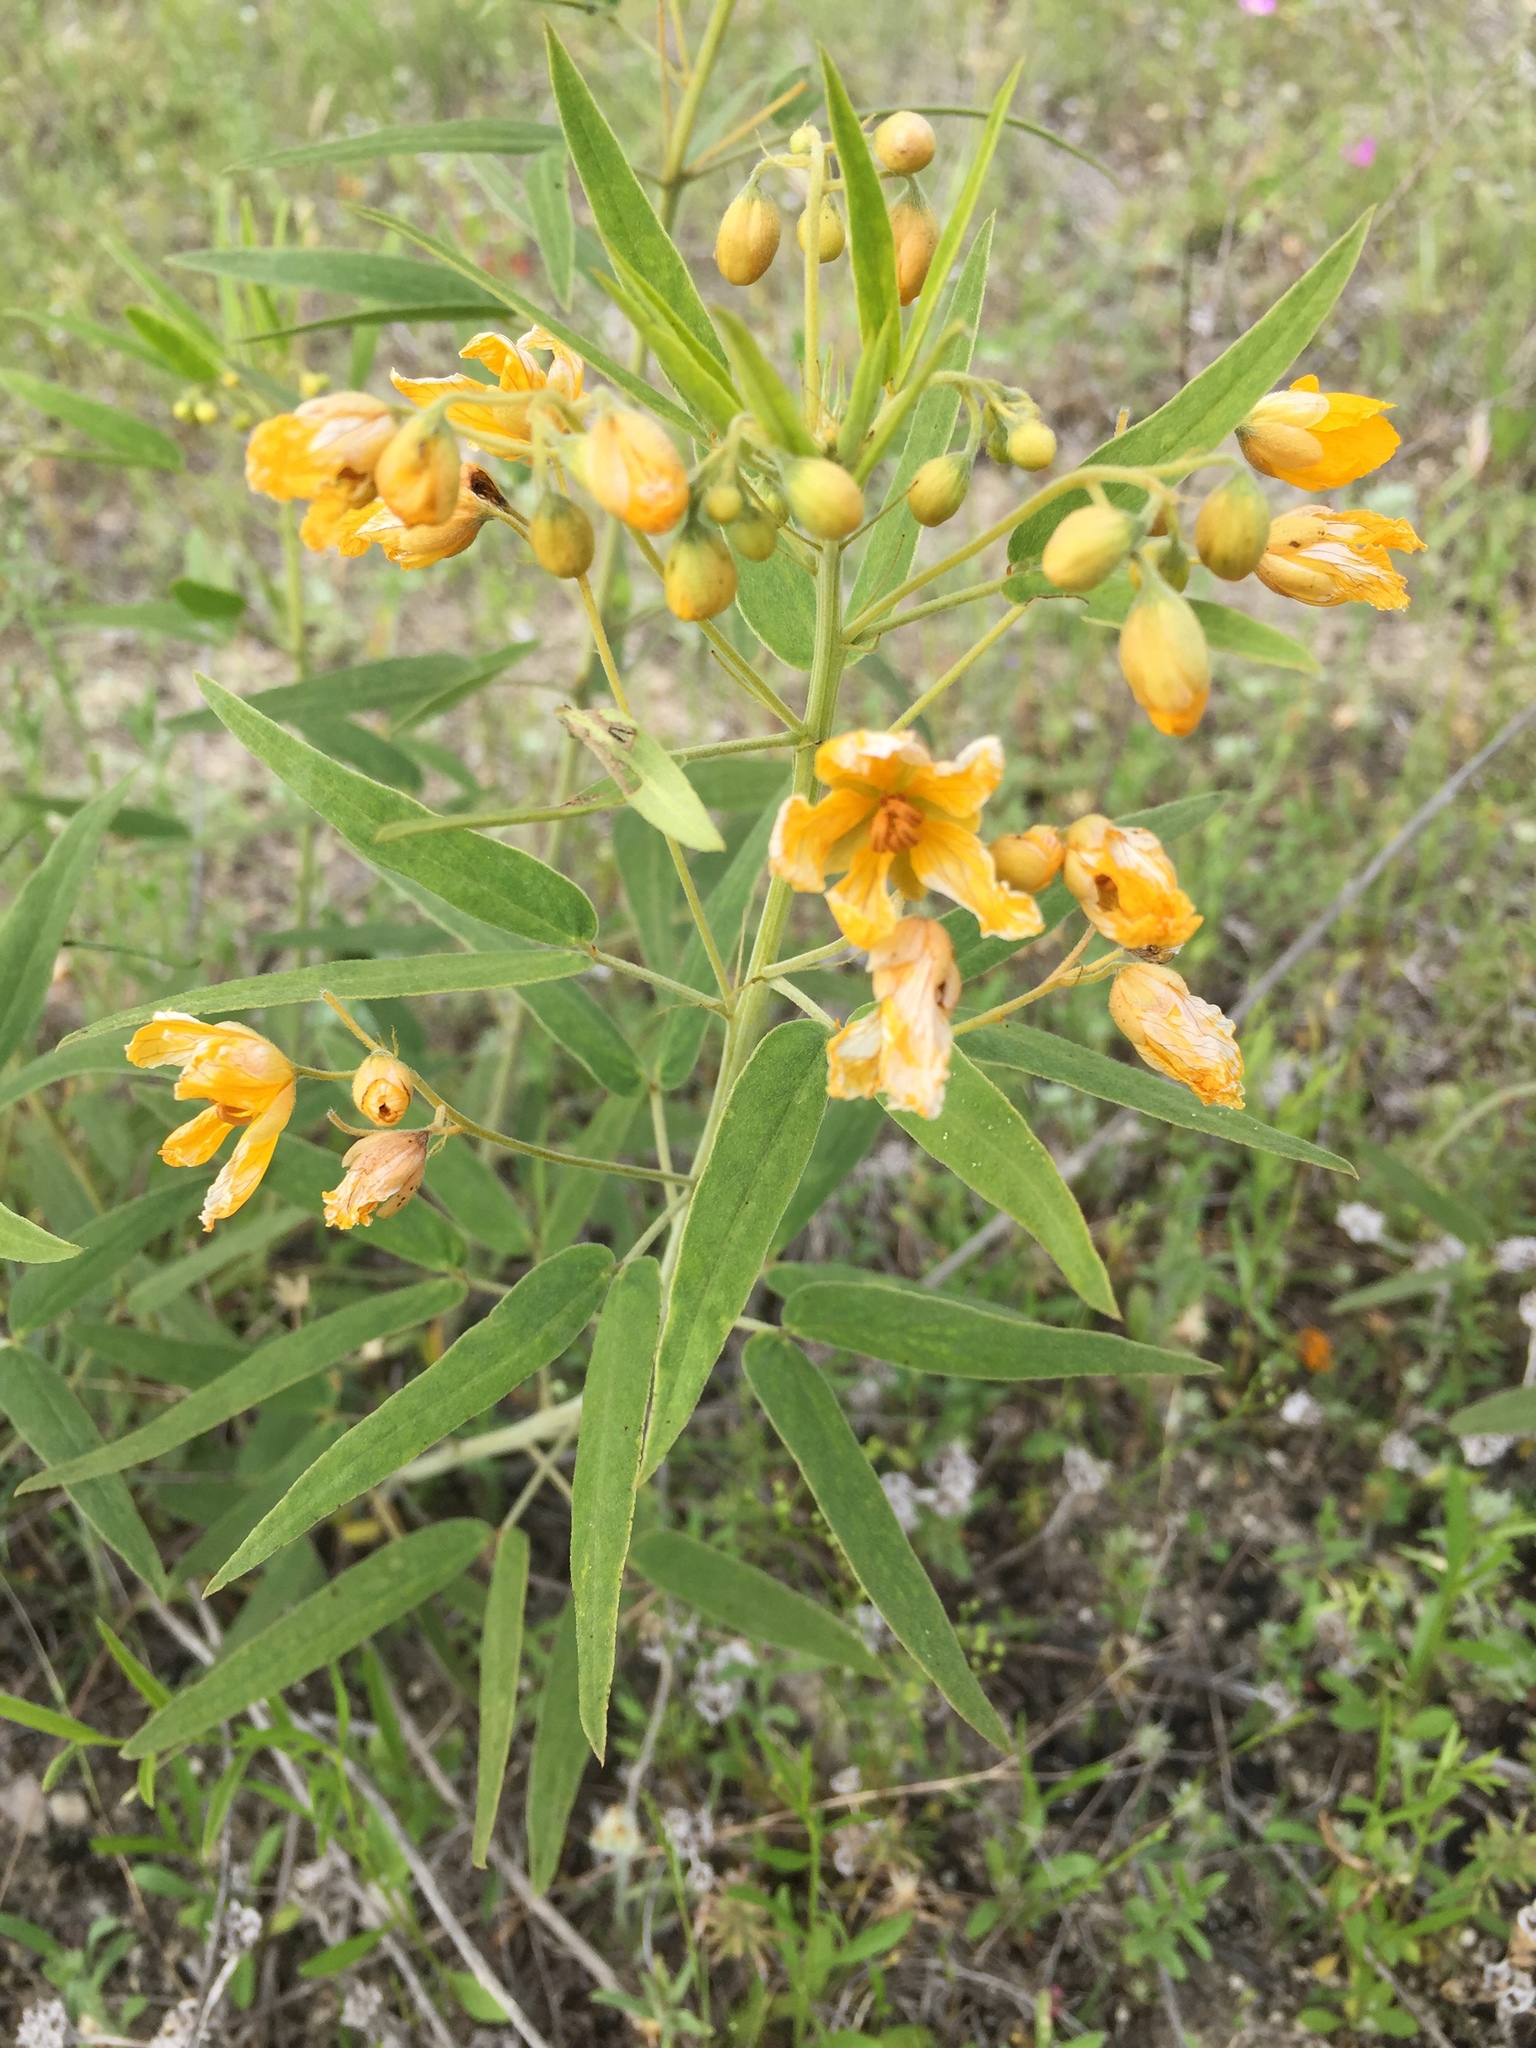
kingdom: Plantae
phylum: Tracheophyta
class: Magnoliopsida
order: Fabales
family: Fabaceae
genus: Senna
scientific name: Senna roemeriana
